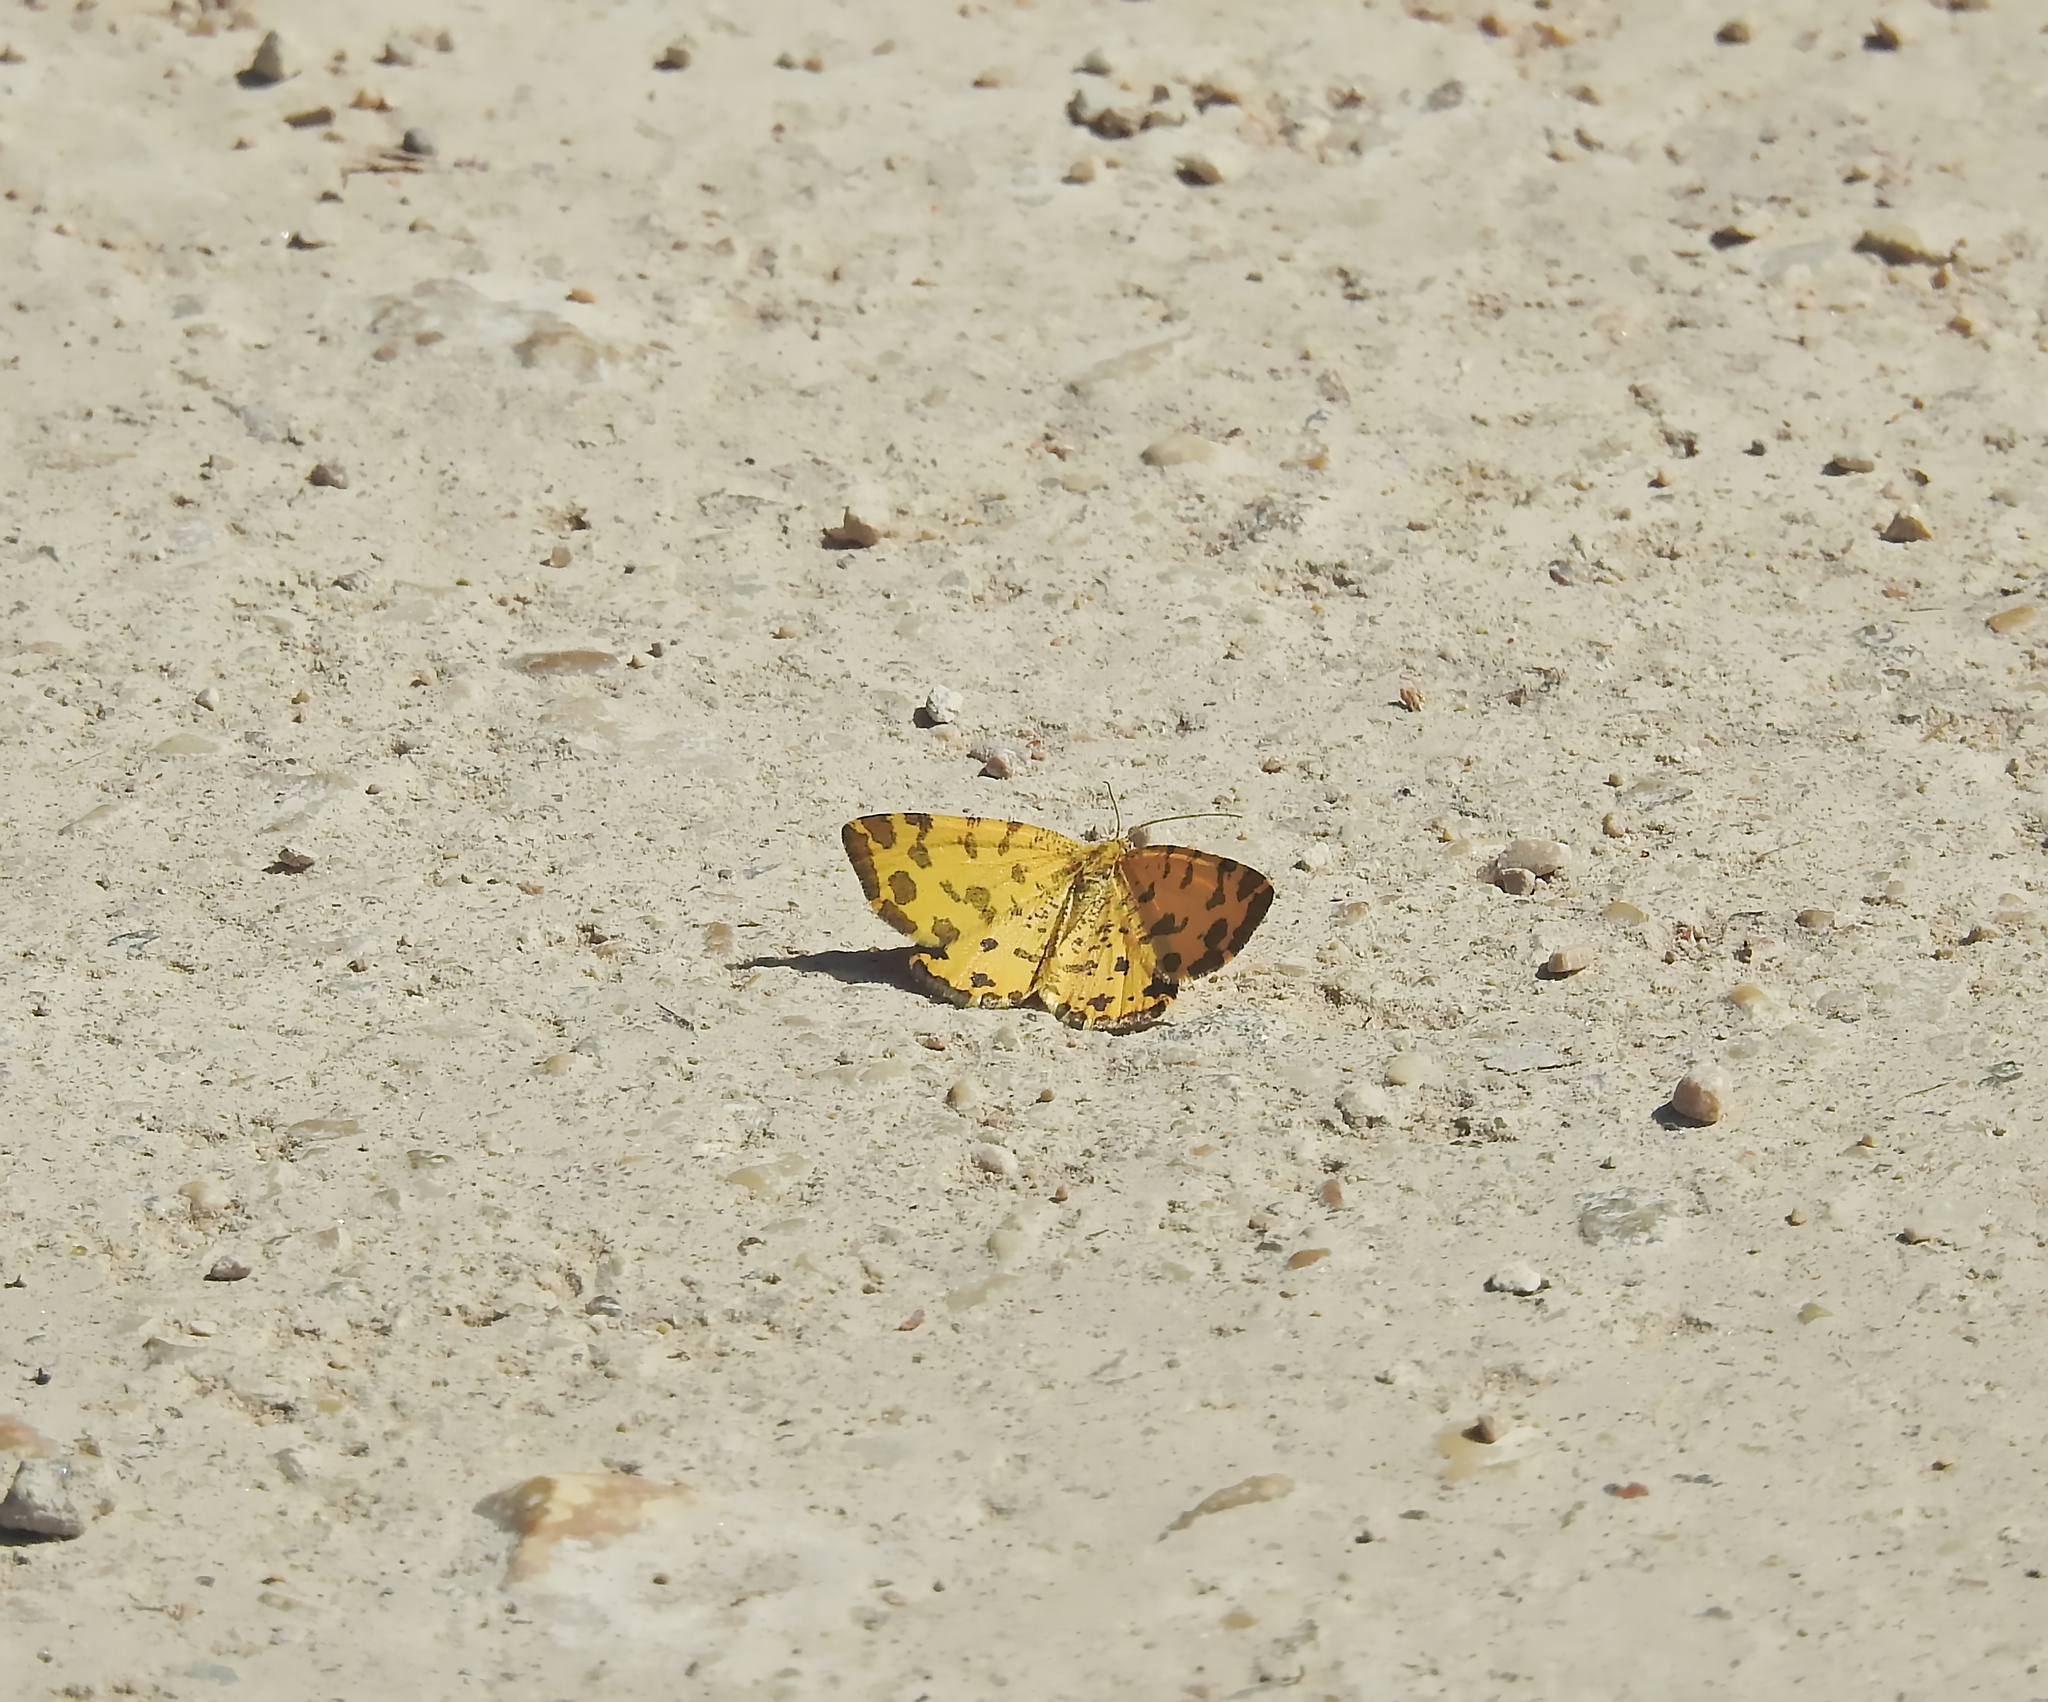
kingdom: Animalia
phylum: Arthropoda
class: Insecta
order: Lepidoptera
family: Geometridae
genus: Pseudopanthera
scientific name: Pseudopanthera macularia
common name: Speckled yellow
